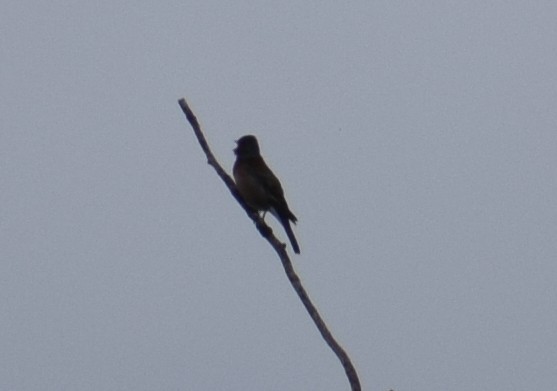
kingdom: Animalia
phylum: Chordata
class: Aves
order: Passeriformes
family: Fringillidae
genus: Linaria
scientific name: Linaria cannabina
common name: Common linnet
